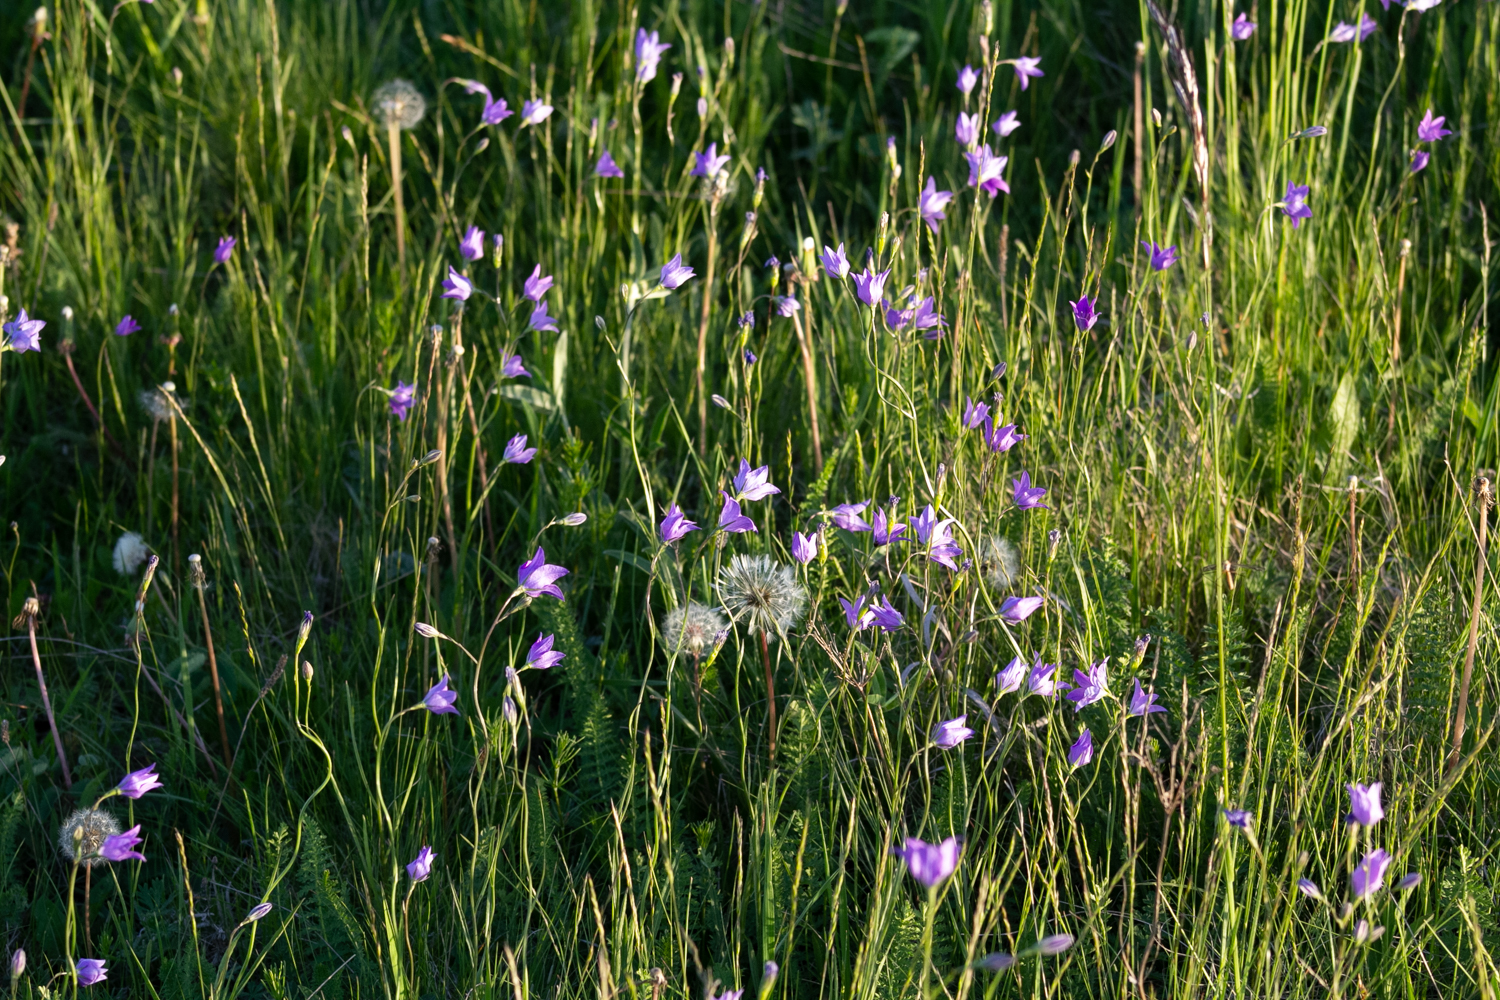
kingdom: Plantae
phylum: Tracheophyta
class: Magnoliopsida
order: Asterales
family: Campanulaceae
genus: Campanula
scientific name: Campanula stevenii
